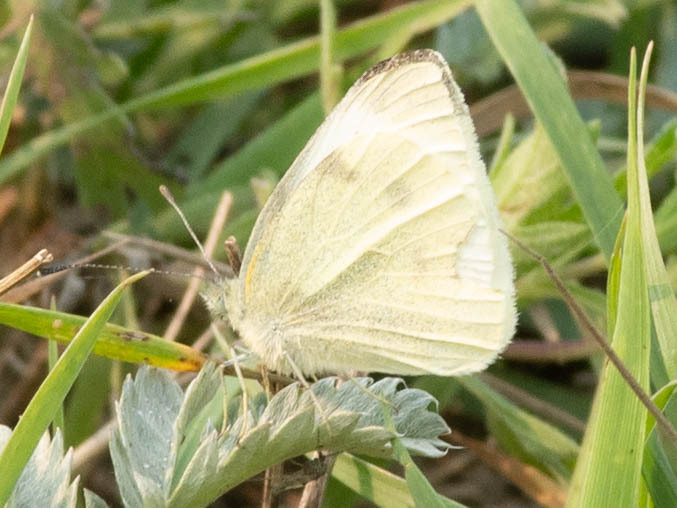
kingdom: Animalia
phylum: Arthropoda
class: Insecta
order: Lepidoptera
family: Pieridae
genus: Pieris
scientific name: Pieris rapae
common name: Small white
